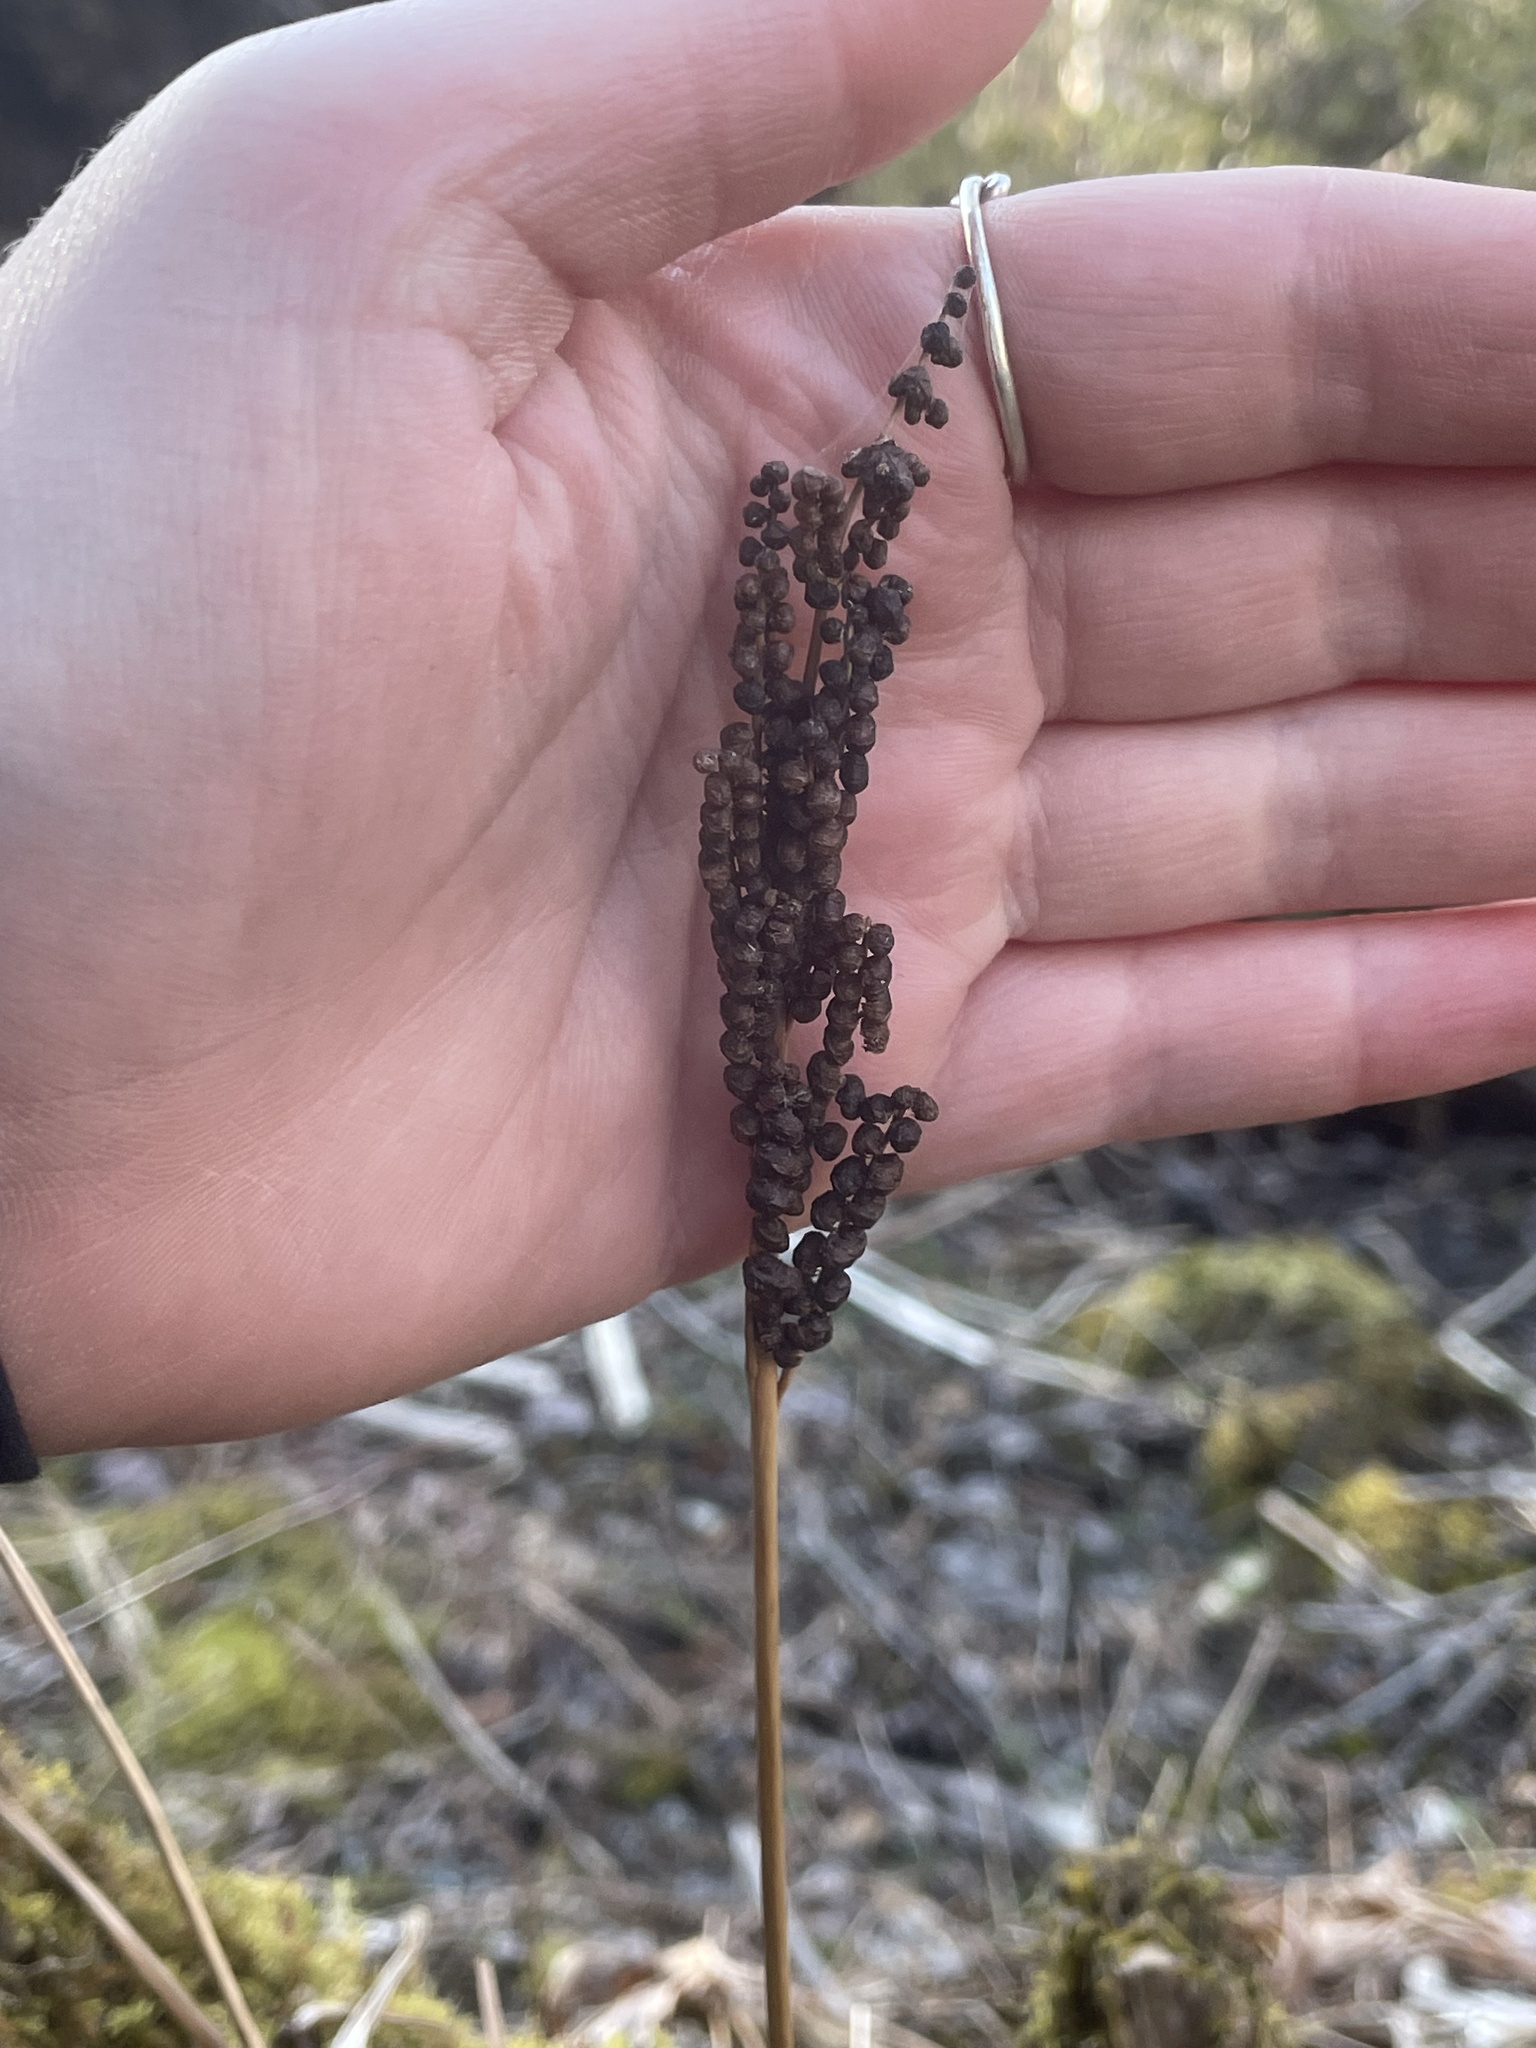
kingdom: Plantae
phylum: Tracheophyta
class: Polypodiopsida
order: Polypodiales
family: Onocleaceae
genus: Onoclea
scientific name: Onoclea sensibilis
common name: Sensitive fern
